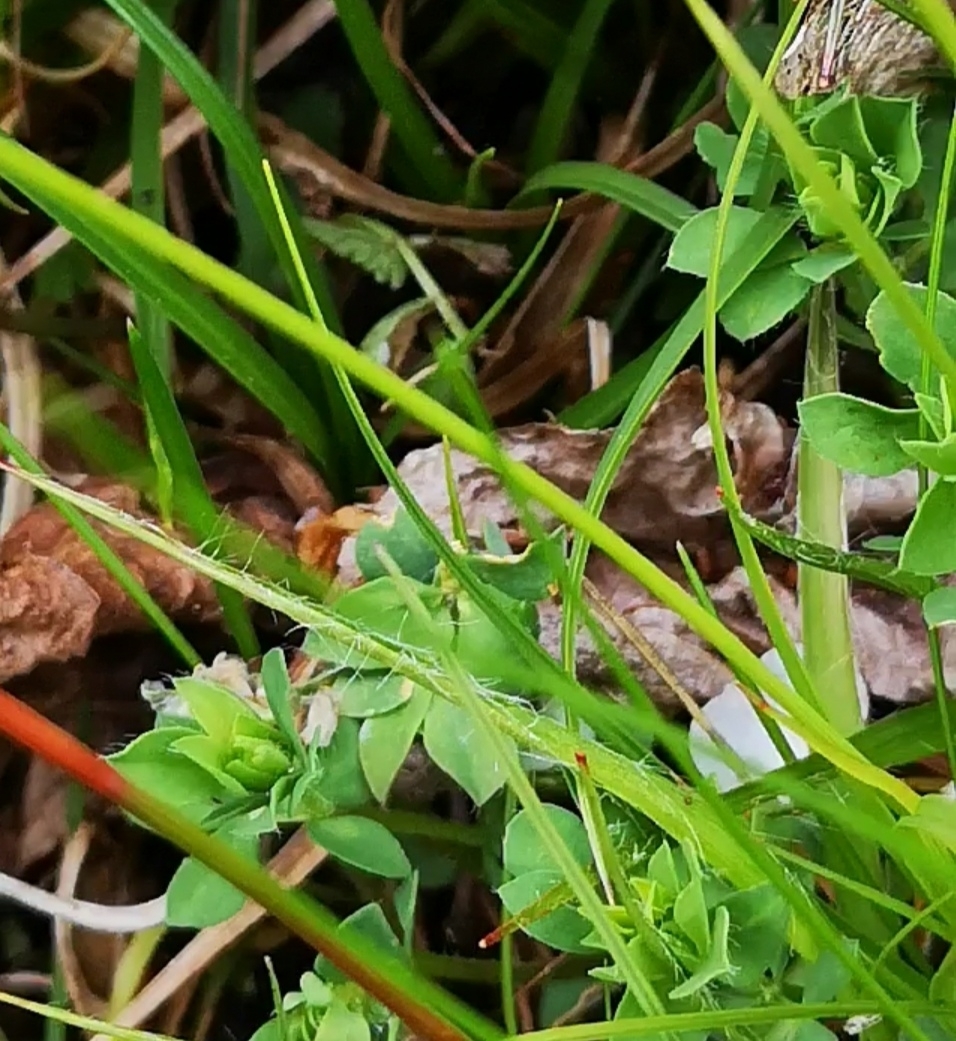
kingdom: Plantae
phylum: Tracheophyta
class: Magnoliopsida
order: Fabales
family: Fabaceae
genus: Lotus
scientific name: Lotus corniculatus
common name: Common bird's-foot-trefoil
